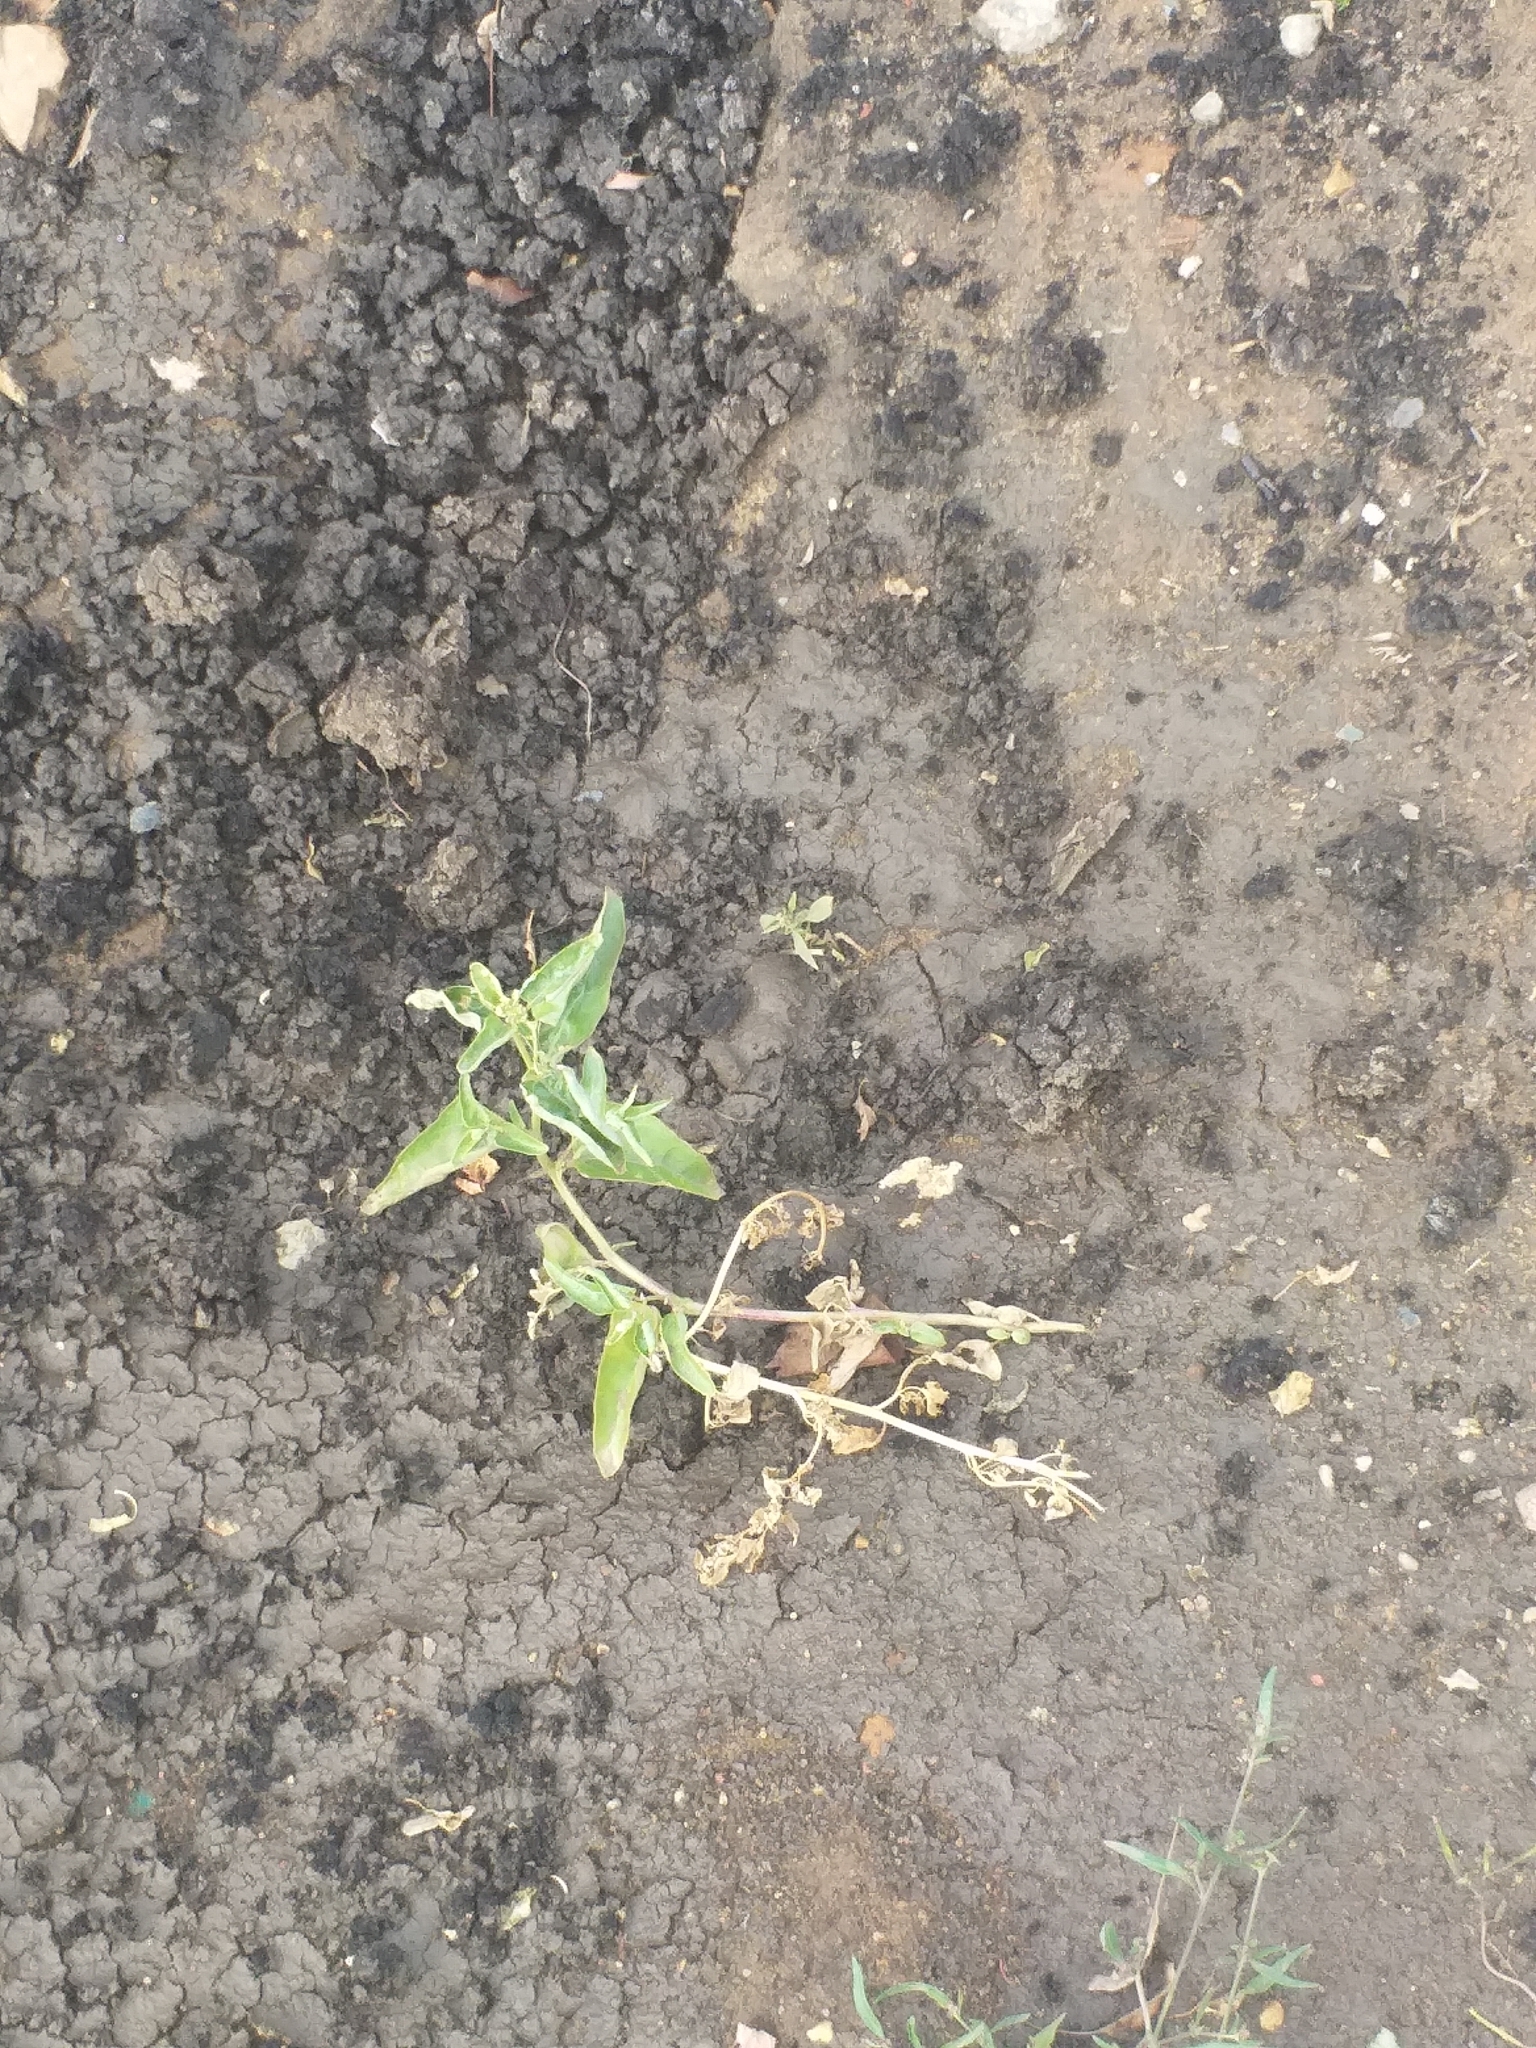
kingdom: Plantae
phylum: Tracheophyta
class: Magnoliopsida
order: Caryophyllales
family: Amaranthaceae
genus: Atriplex
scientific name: Atriplex sagittata
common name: Purple orache
